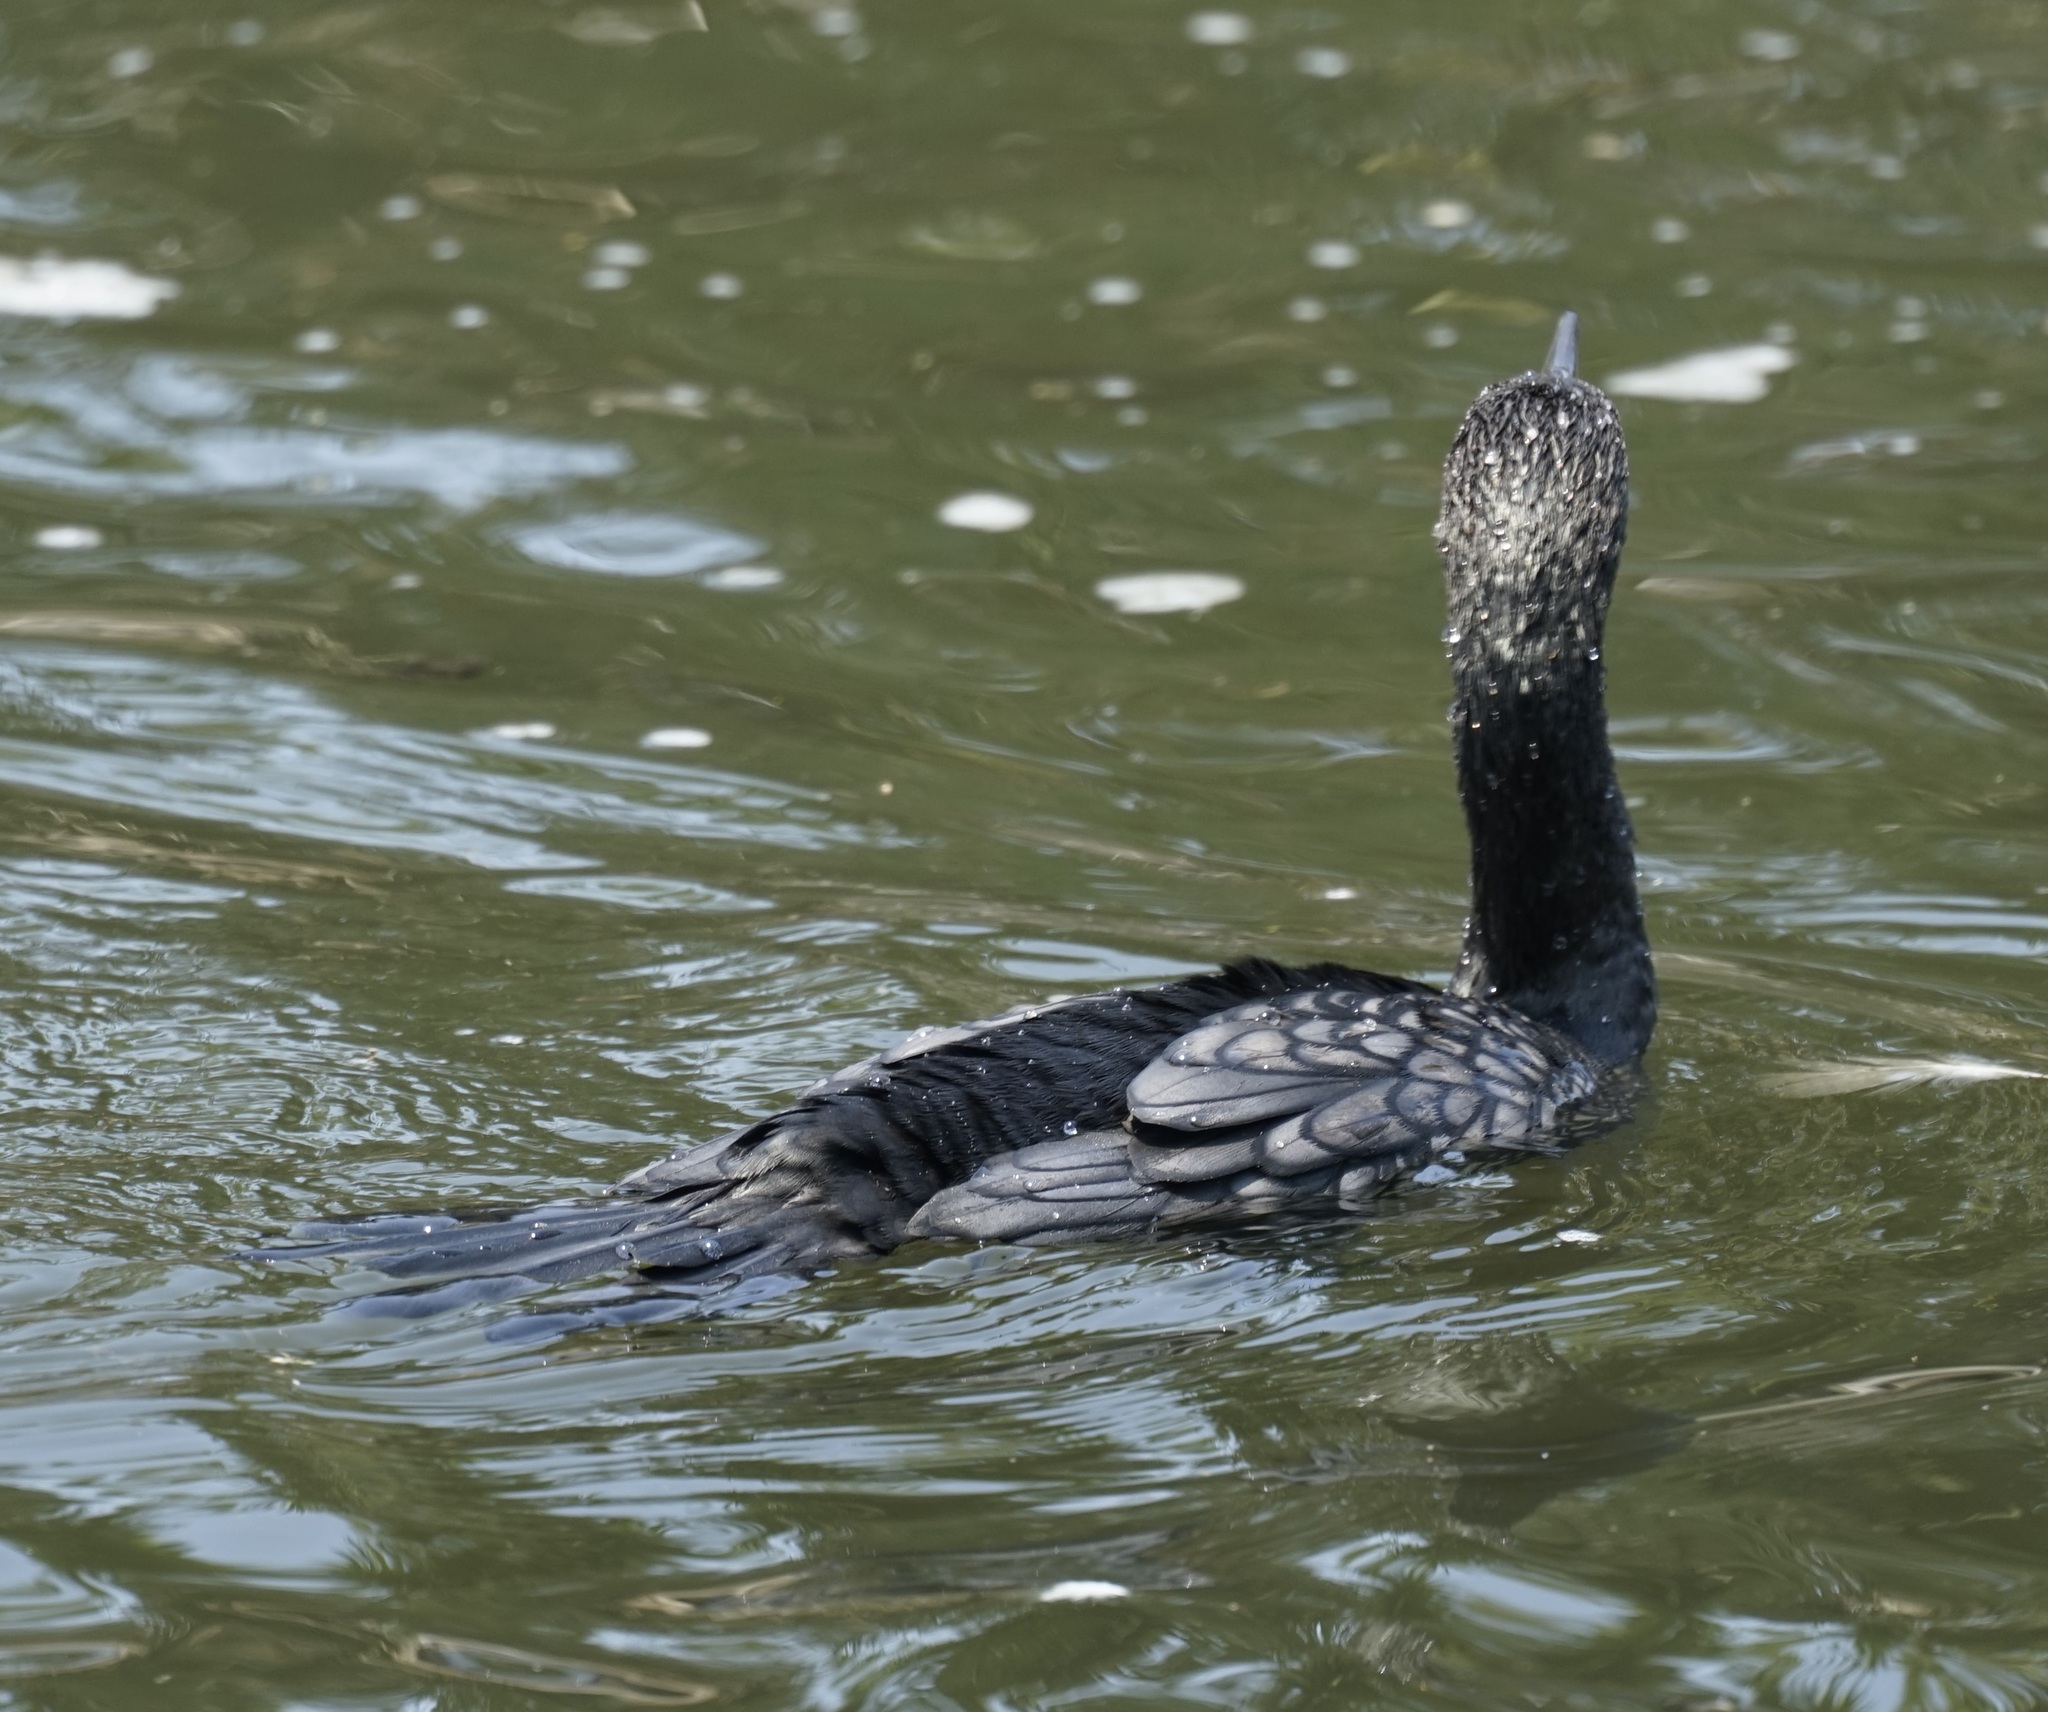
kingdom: Animalia
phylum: Chordata
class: Aves
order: Suliformes
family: Phalacrocoracidae
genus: Phalacrocorax
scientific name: Phalacrocorax sulcirostris
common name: Little black cormorant
